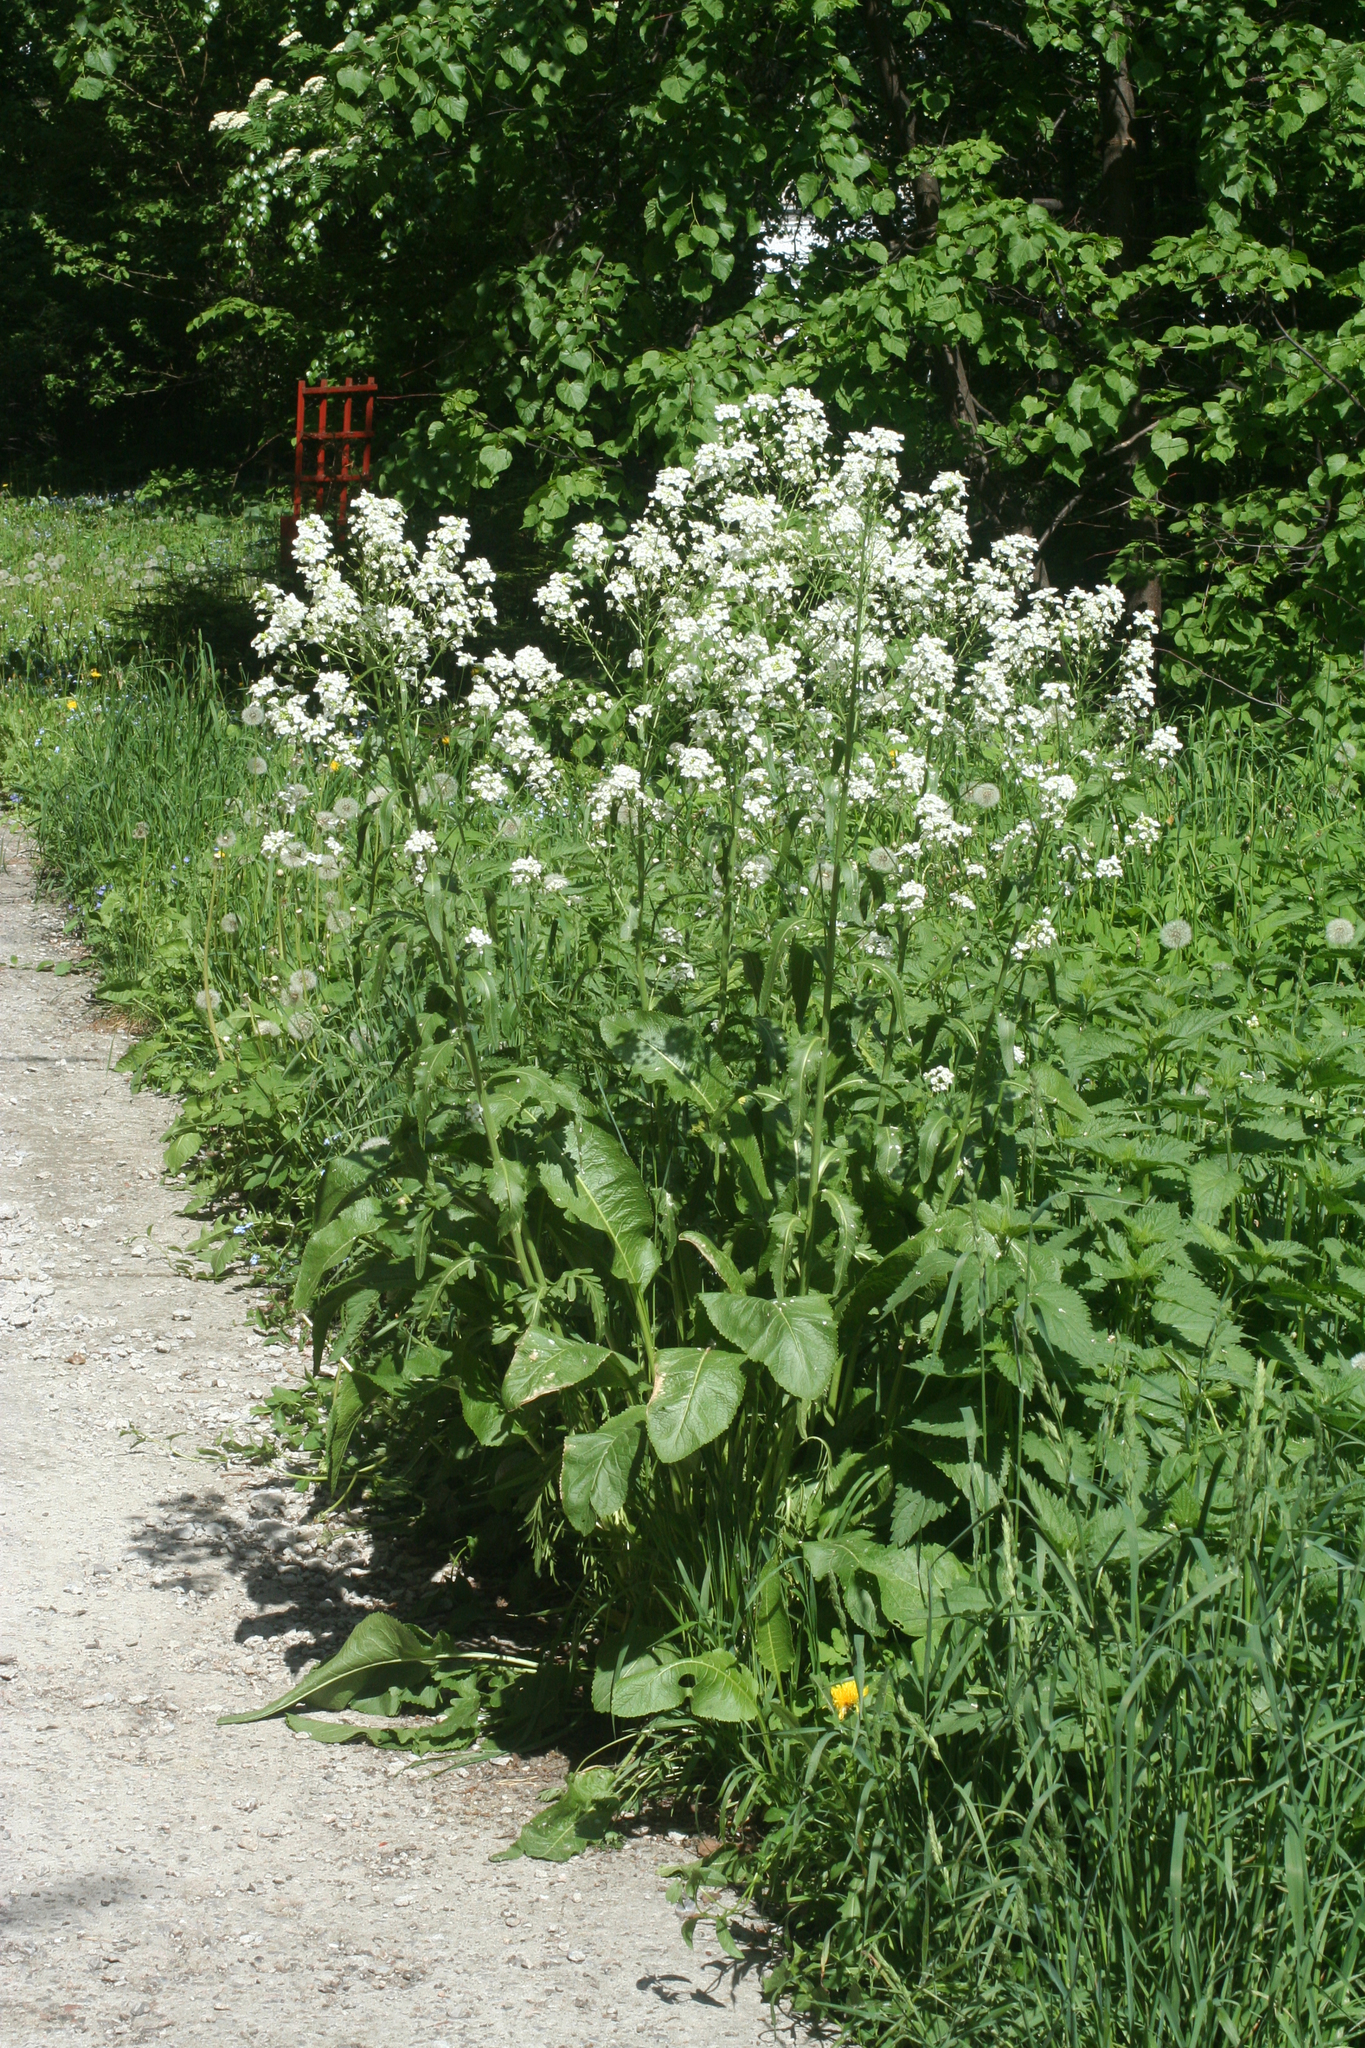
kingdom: Plantae
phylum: Tracheophyta
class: Magnoliopsida
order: Brassicales
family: Brassicaceae
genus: Armoracia
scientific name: Armoracia rusticana
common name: Horseradish
